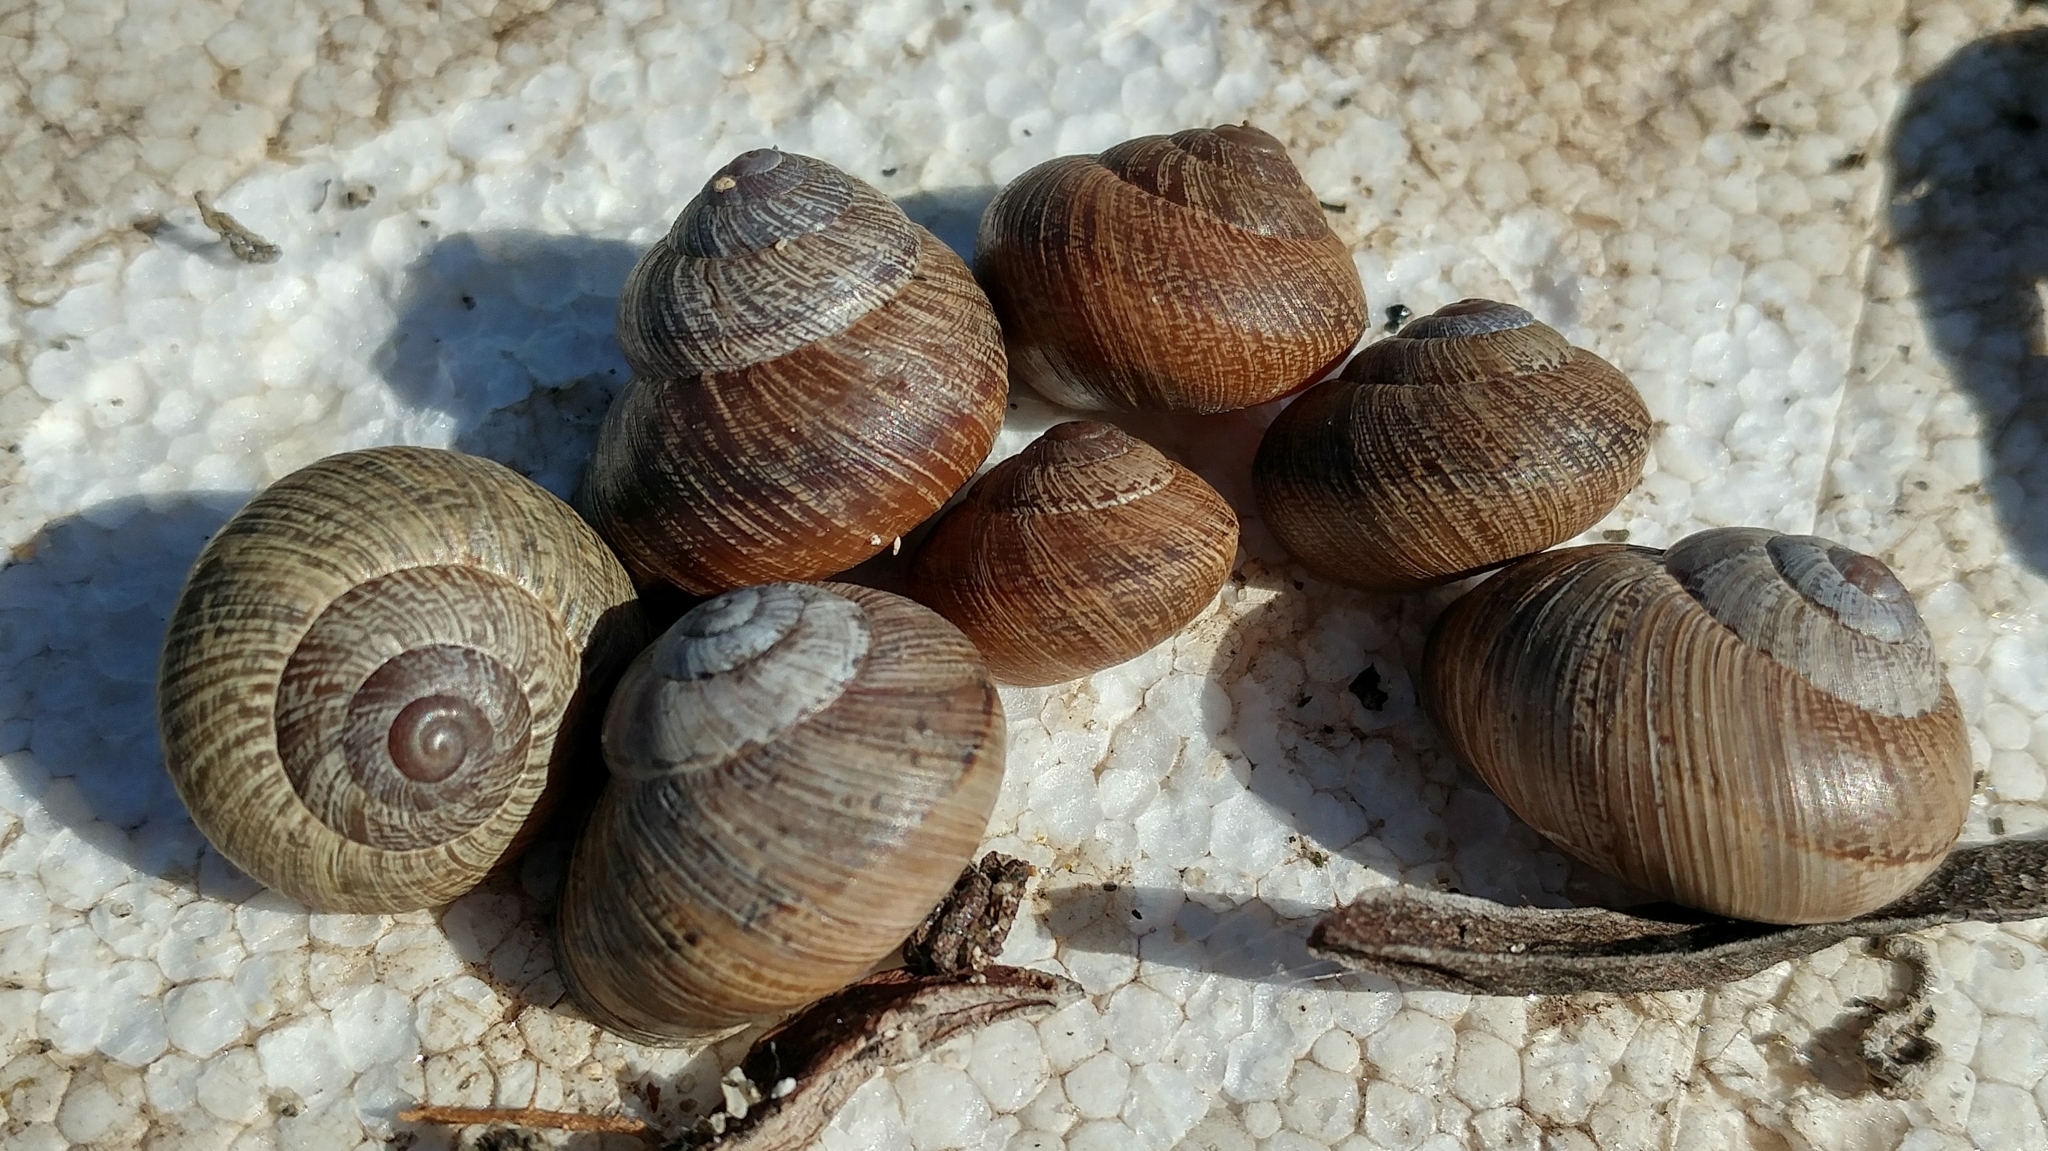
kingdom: Animalia
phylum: Mollusca
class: Gastropoda
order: Stylommatophora
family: Xanthonychidae
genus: Xerarionta
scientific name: Xerarionta redimita
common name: Wreathed cactus snail
